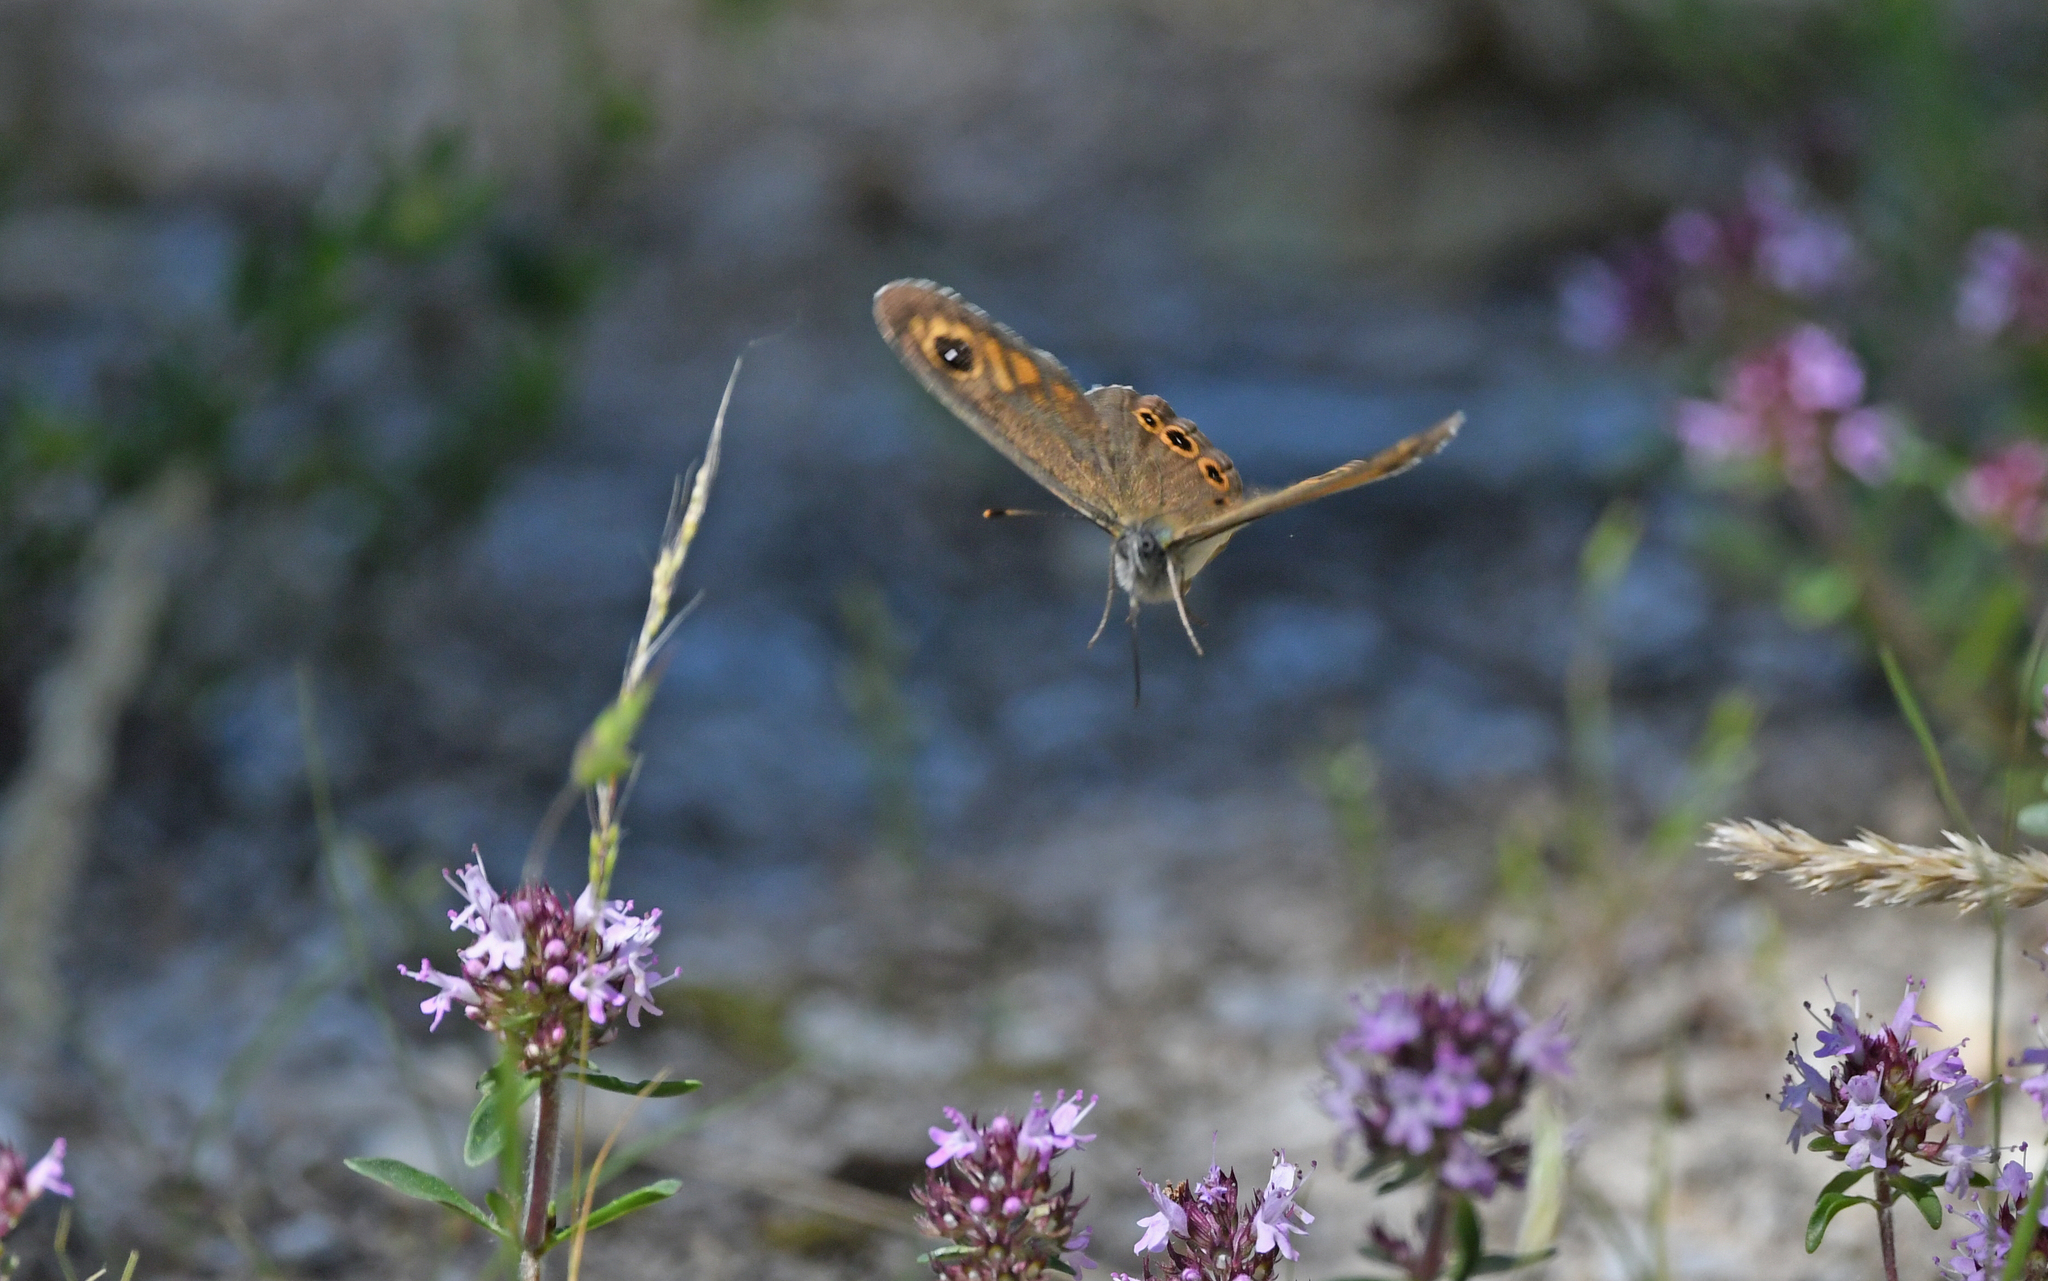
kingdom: Animalia
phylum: Arthropoda
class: Insecta
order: Lepidoptera
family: Nymphalidae
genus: Pararge
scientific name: Pararge Lasiommata maera
